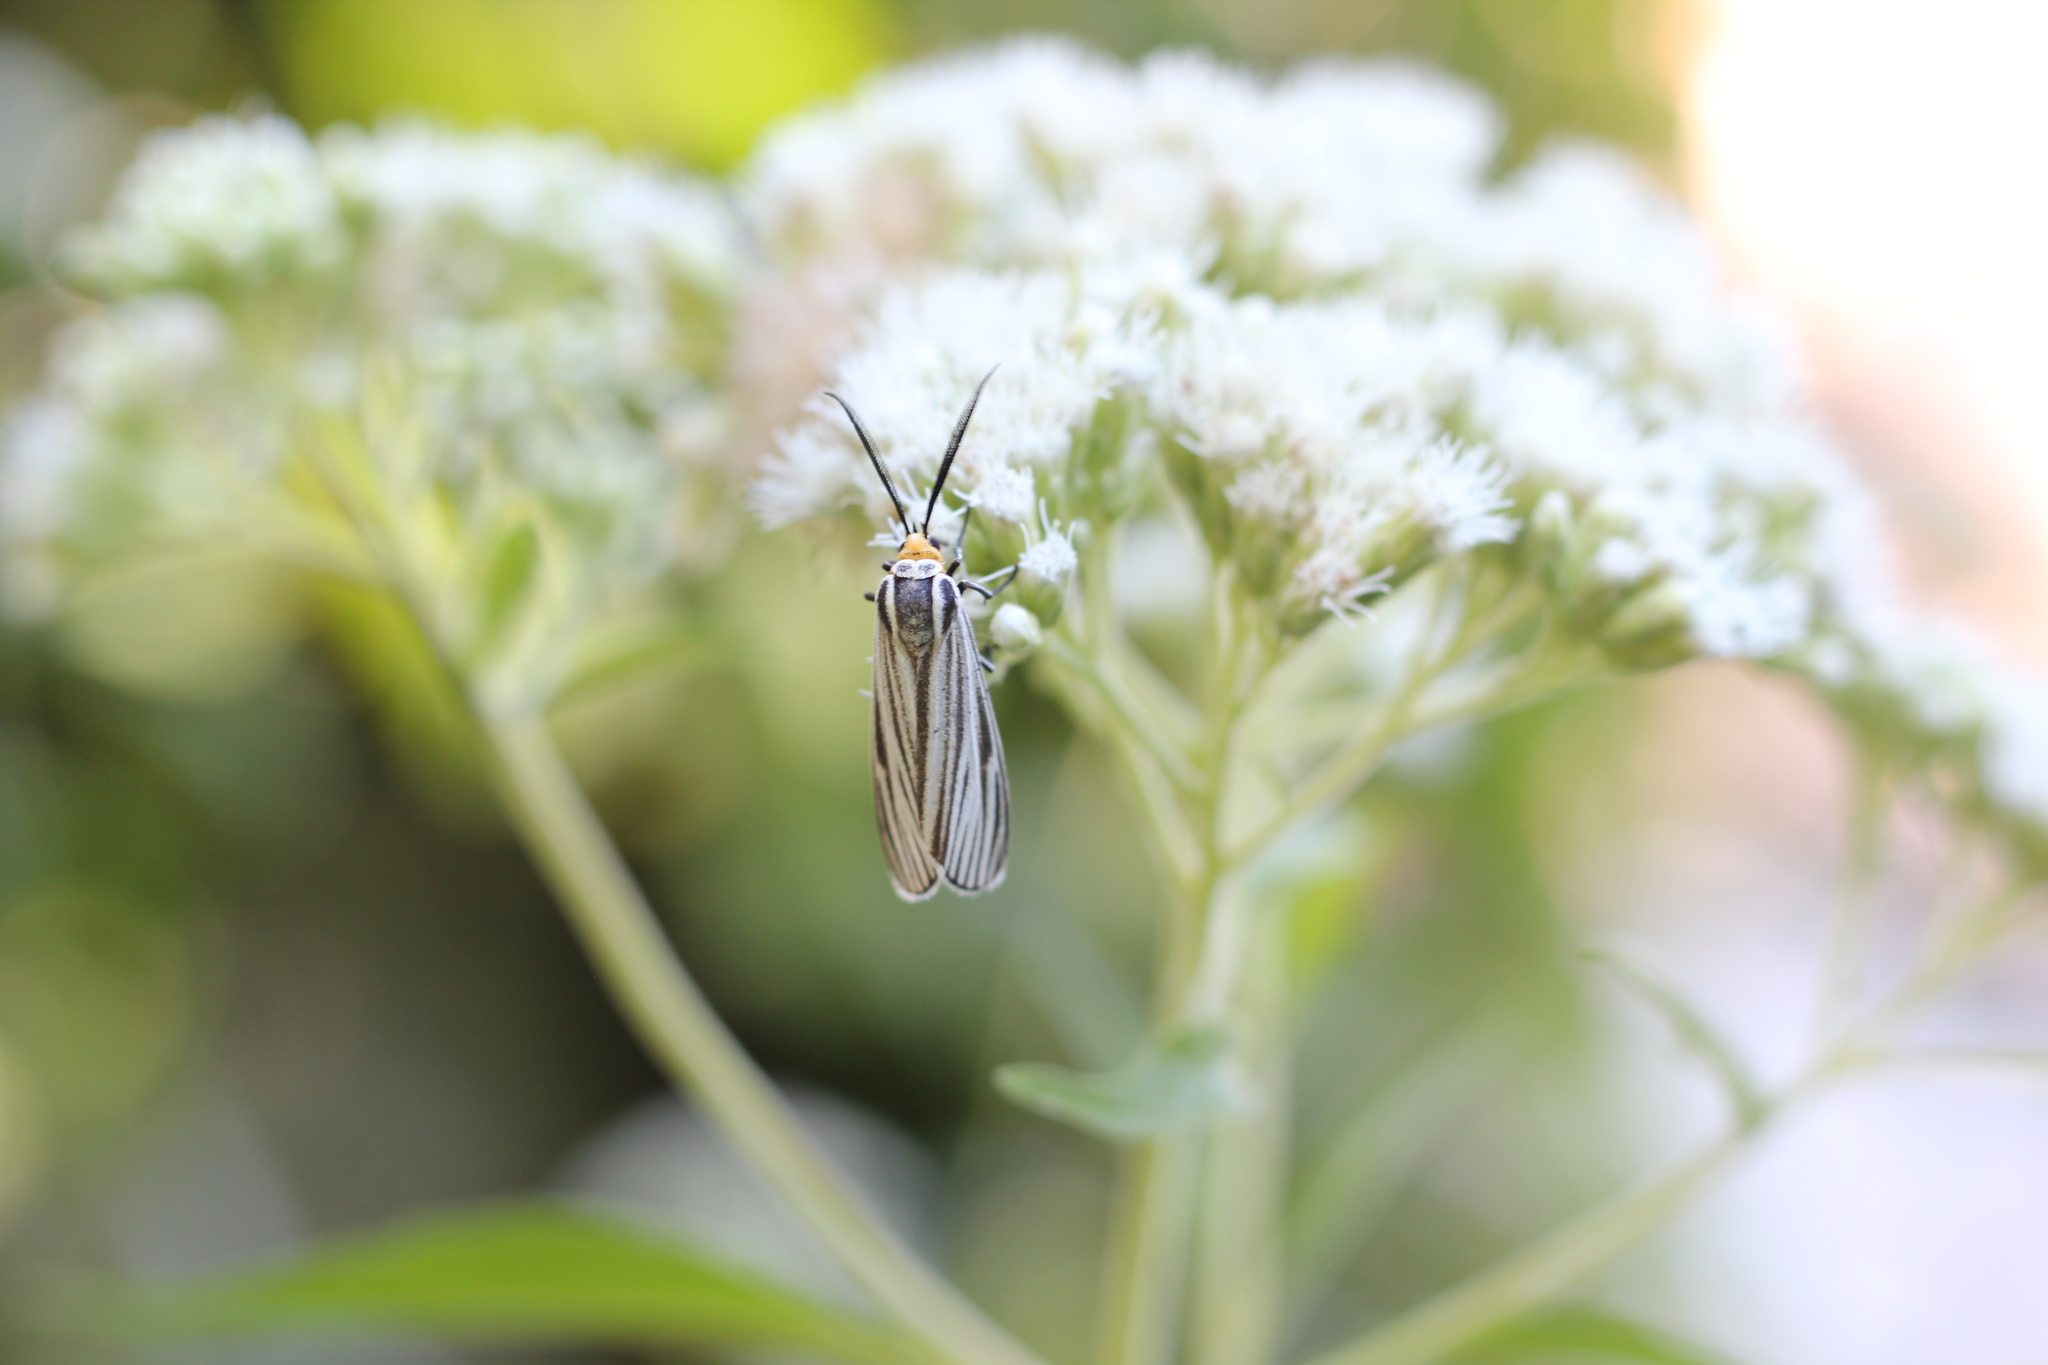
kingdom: Animalia
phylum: Arthropoda
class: Insecta
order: Lepidoptera
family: Erebidae
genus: Ctenucha
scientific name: Ctenucha vittigerum
